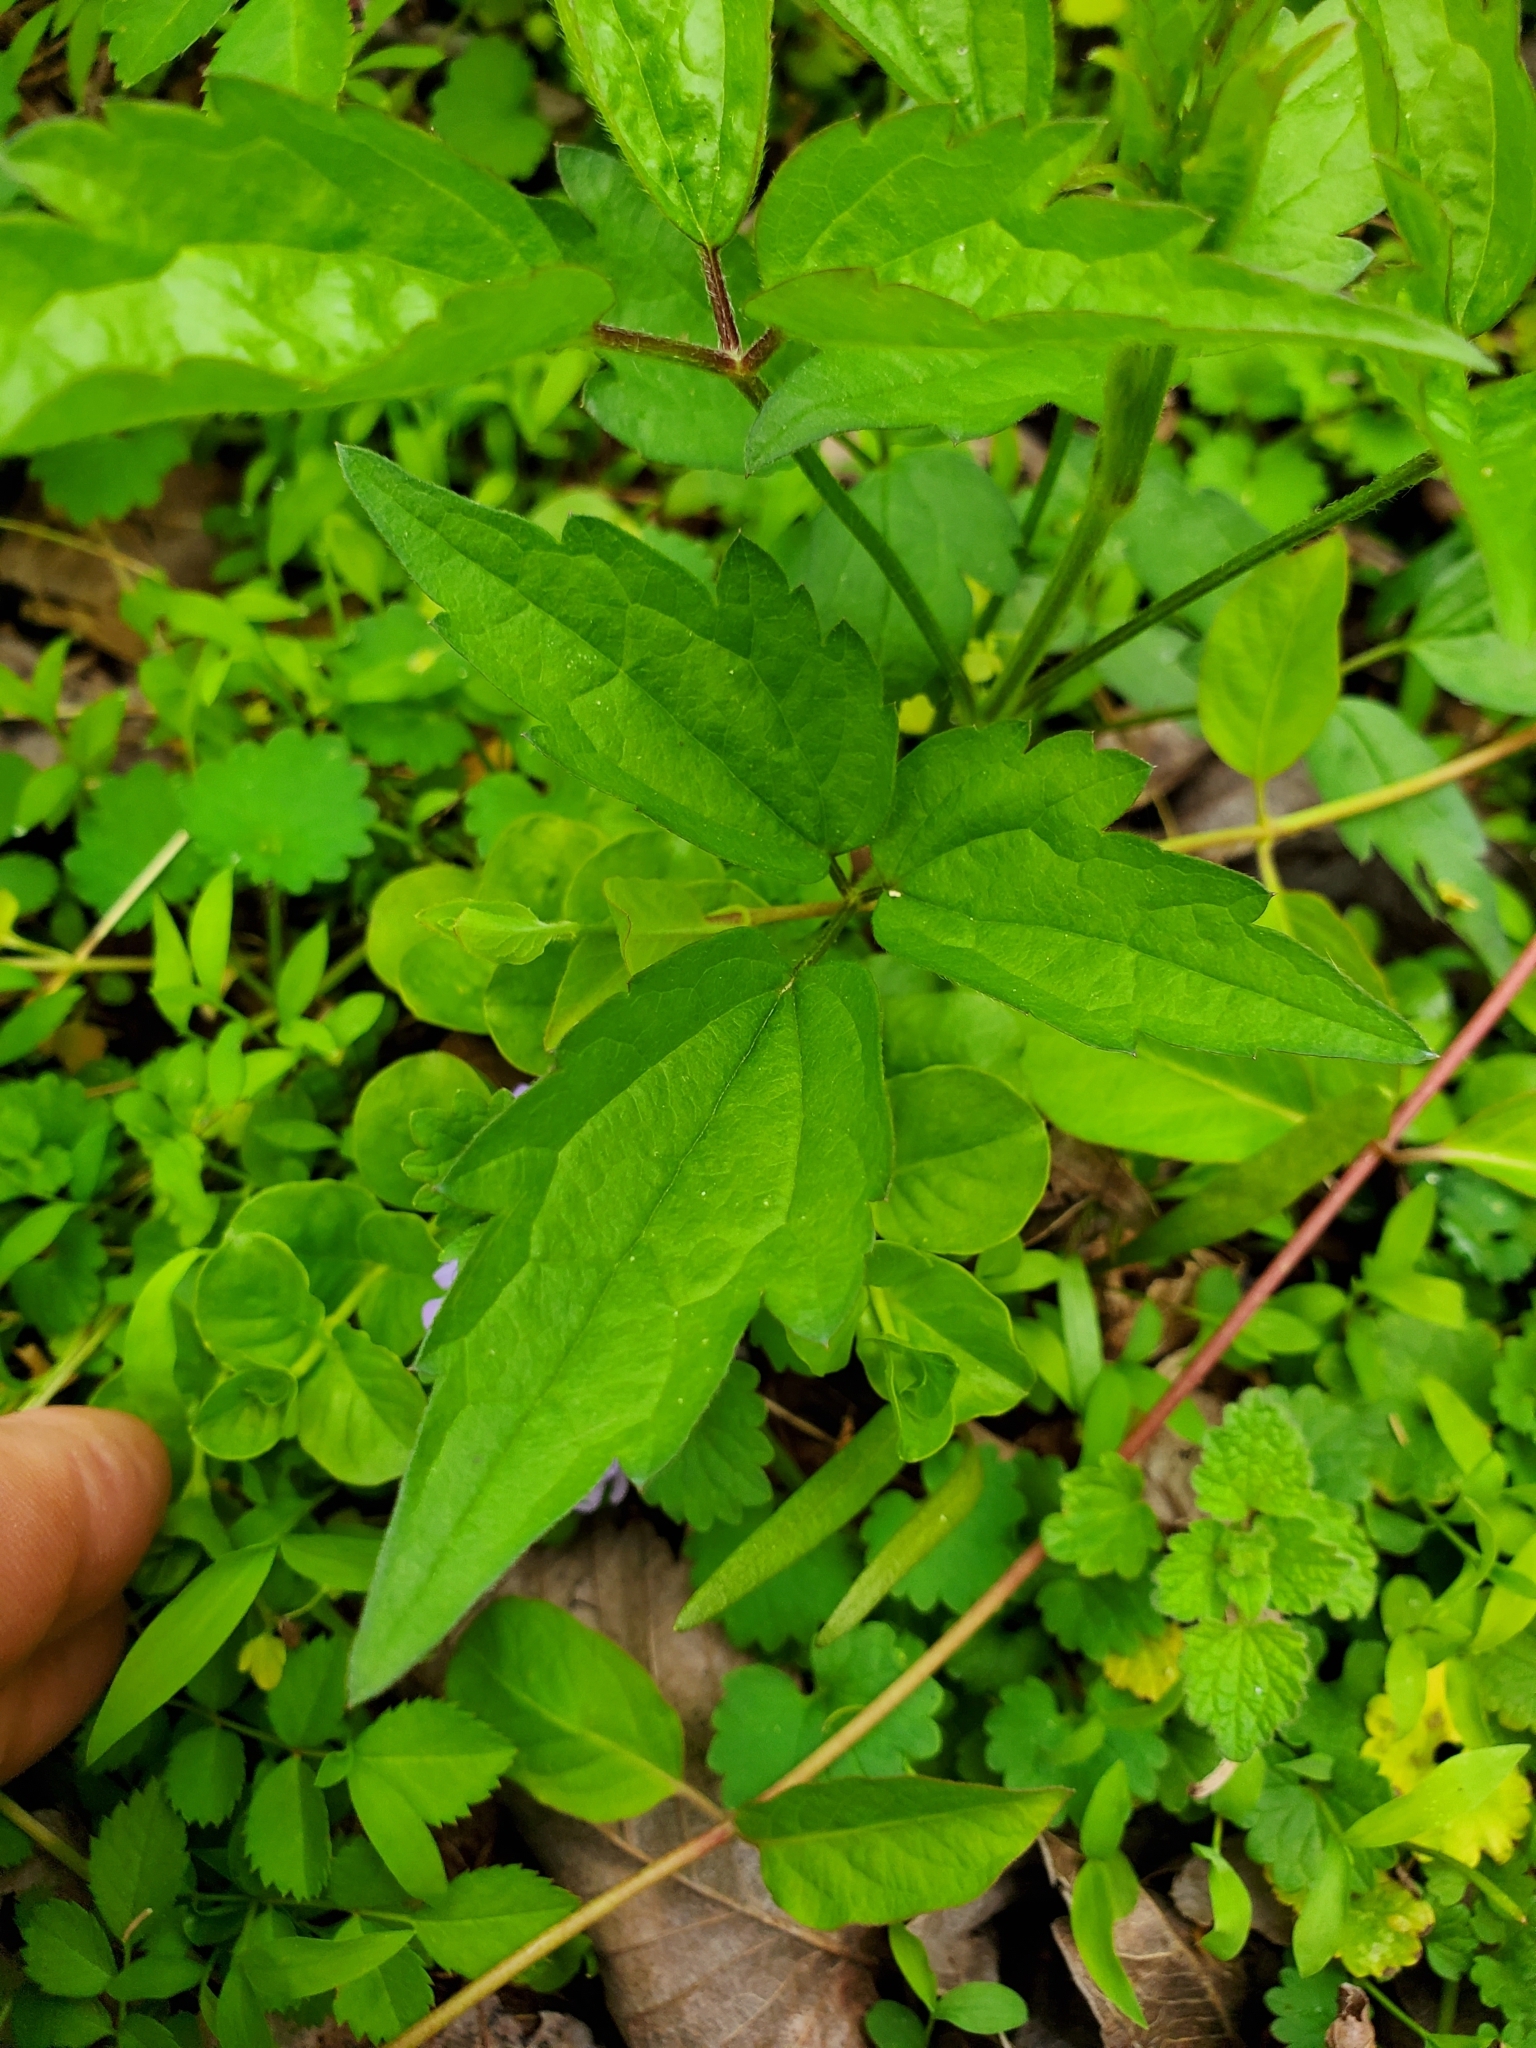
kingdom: Plantae
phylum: Tracheophyta
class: Magnoliopsida
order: Ranunculales
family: Ranunculaceae
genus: Clematis
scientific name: Clematis virginiana
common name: Virgin's-bower
